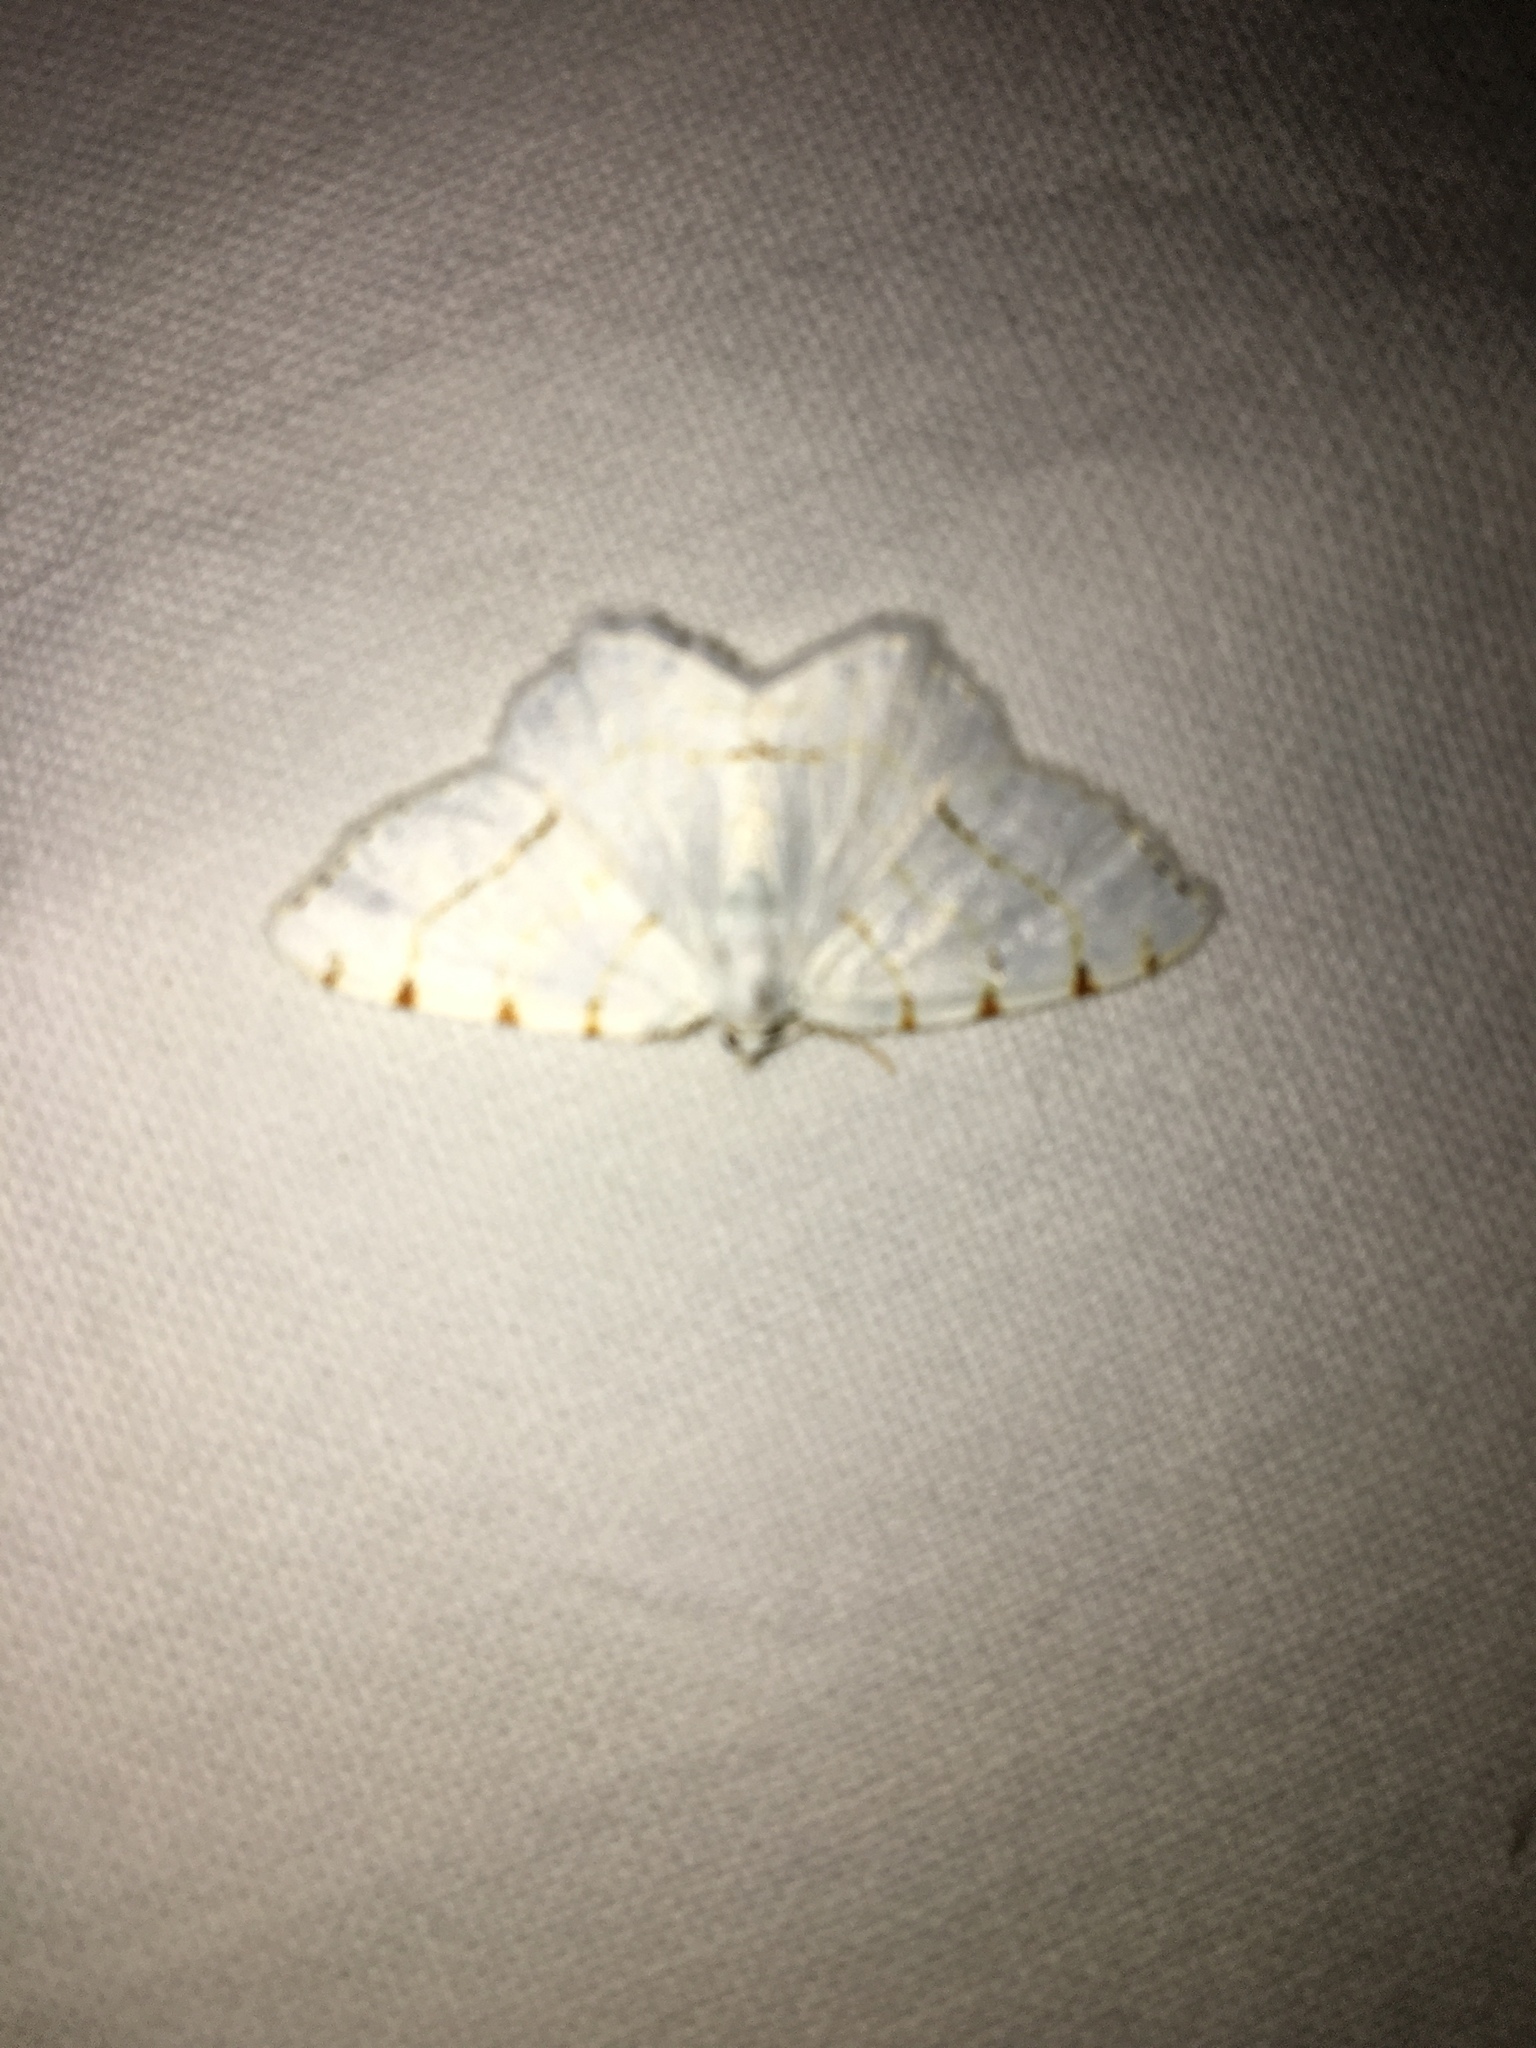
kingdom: Animalia
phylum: Arthropoda
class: Insecta
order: Lepidoptera
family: Geometridae
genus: Macaria
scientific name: Macaria pustularia
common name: Lesser maple spanworm moth
